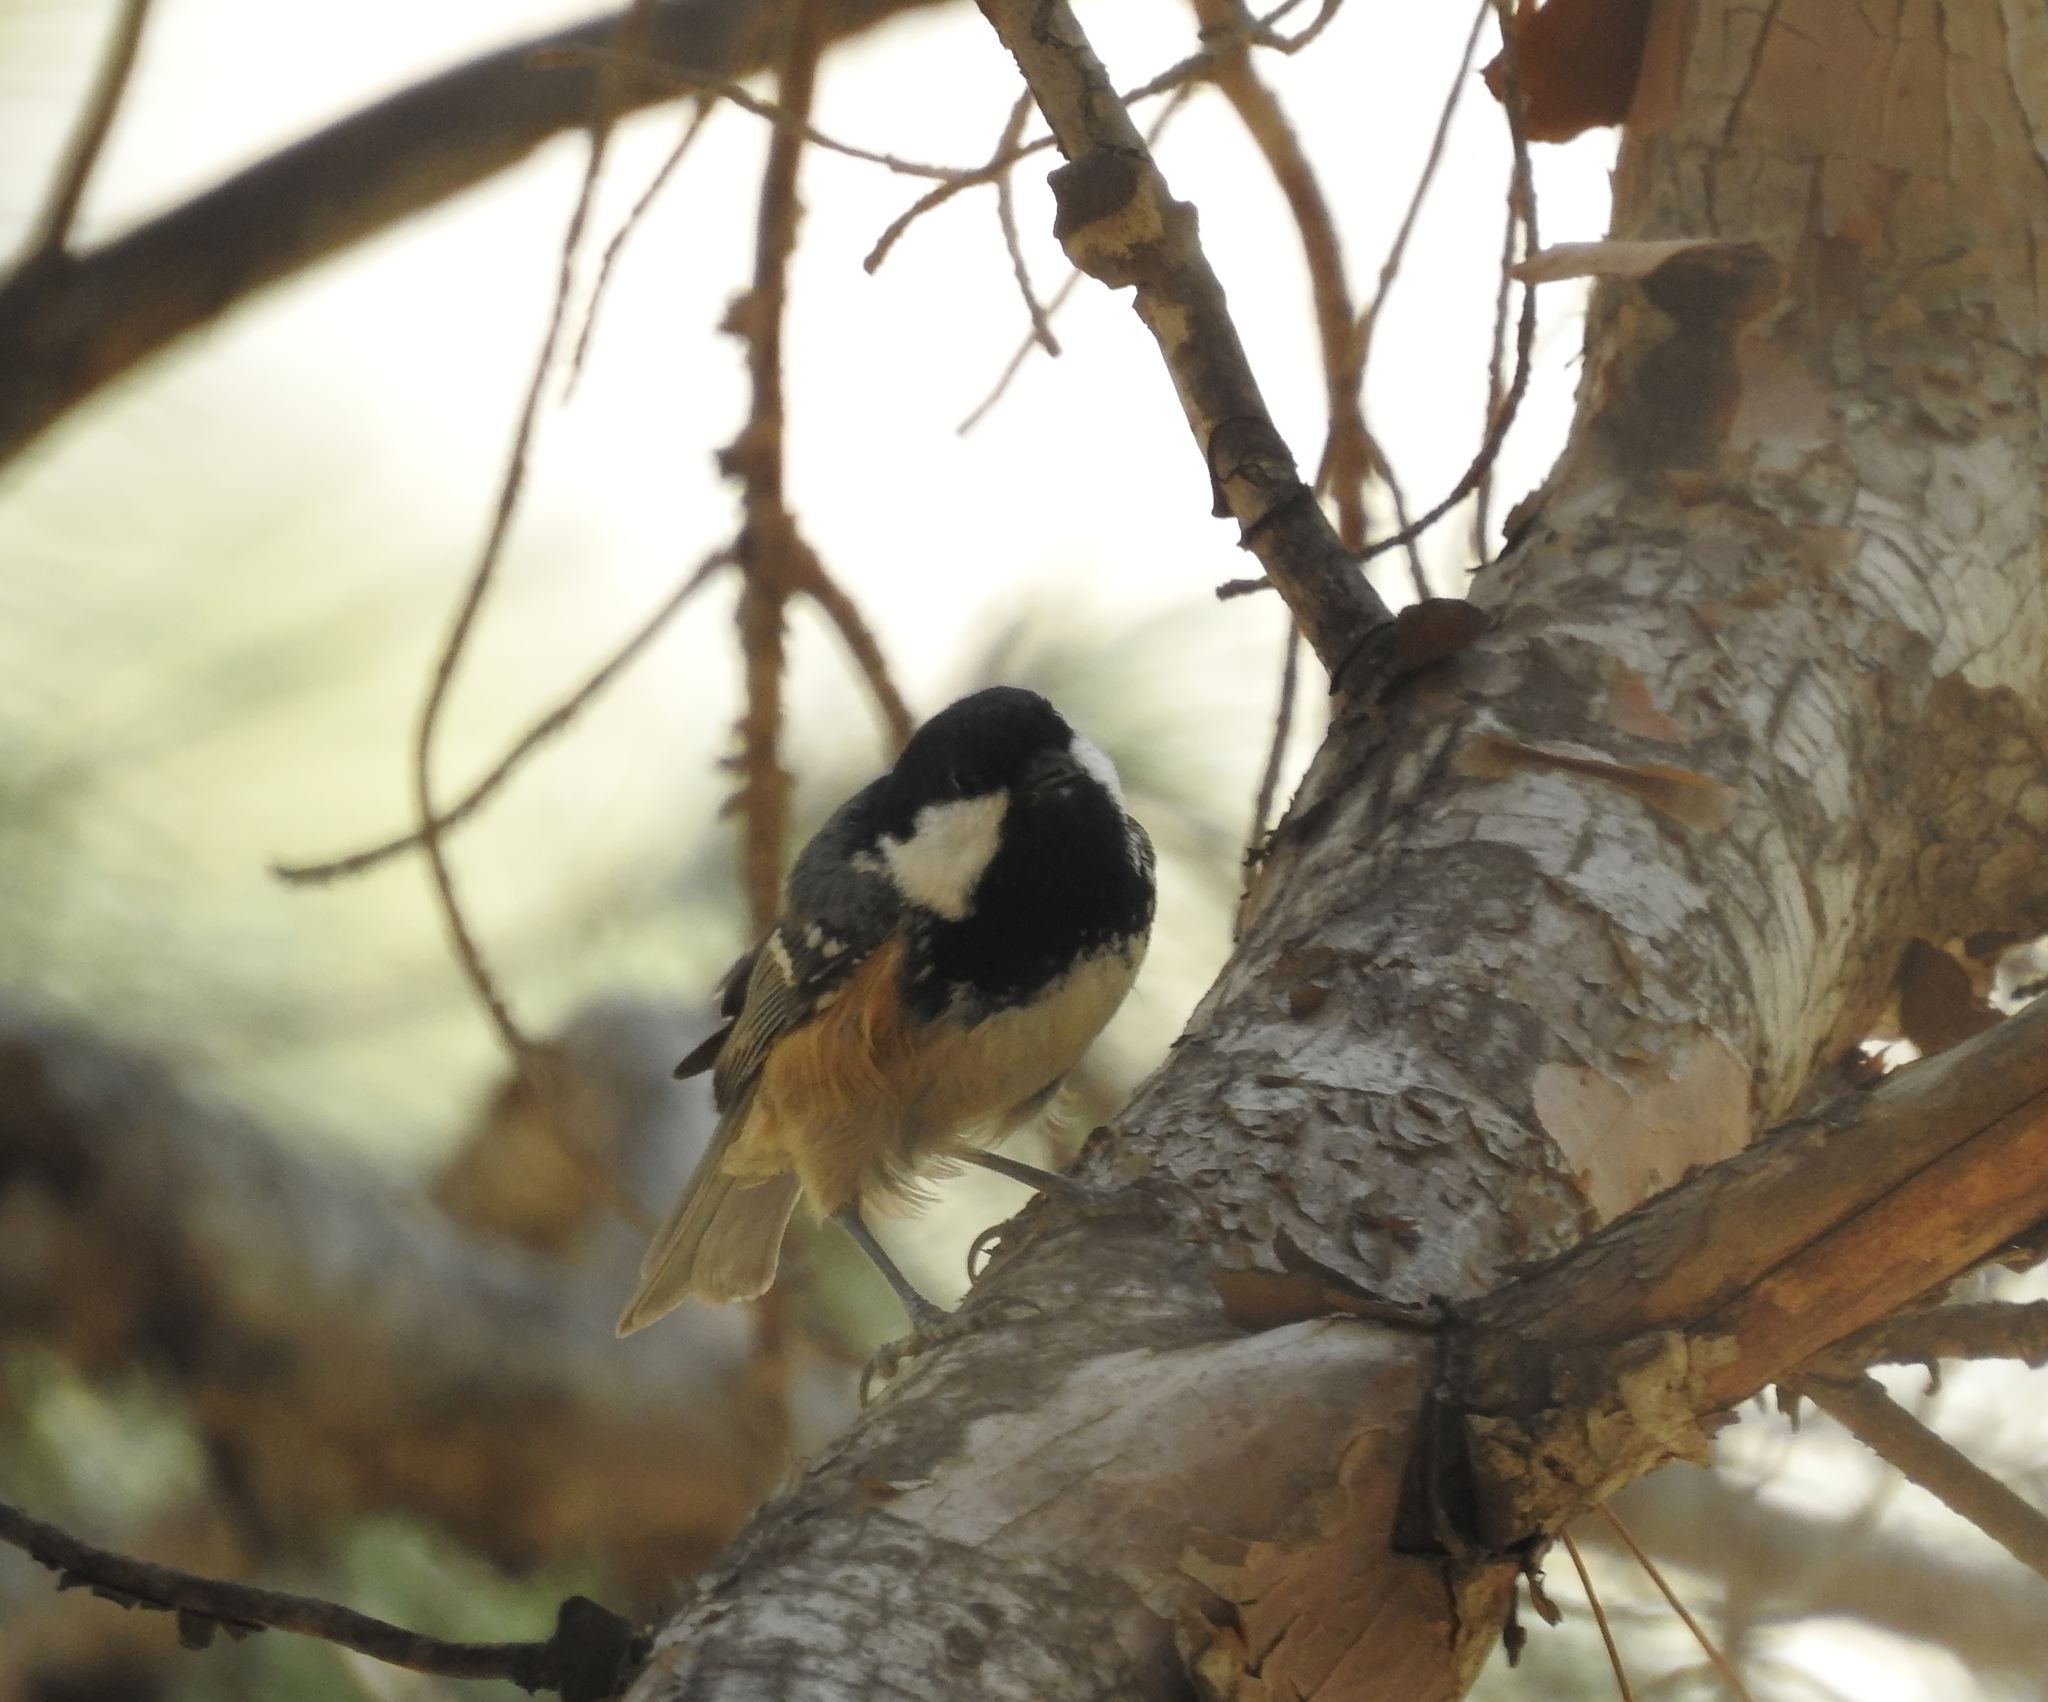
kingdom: Animalia
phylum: Chordata
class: Aves
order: Passeriformes
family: Paridae
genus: Periparus
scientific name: Periparus ater
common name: Coal tit
